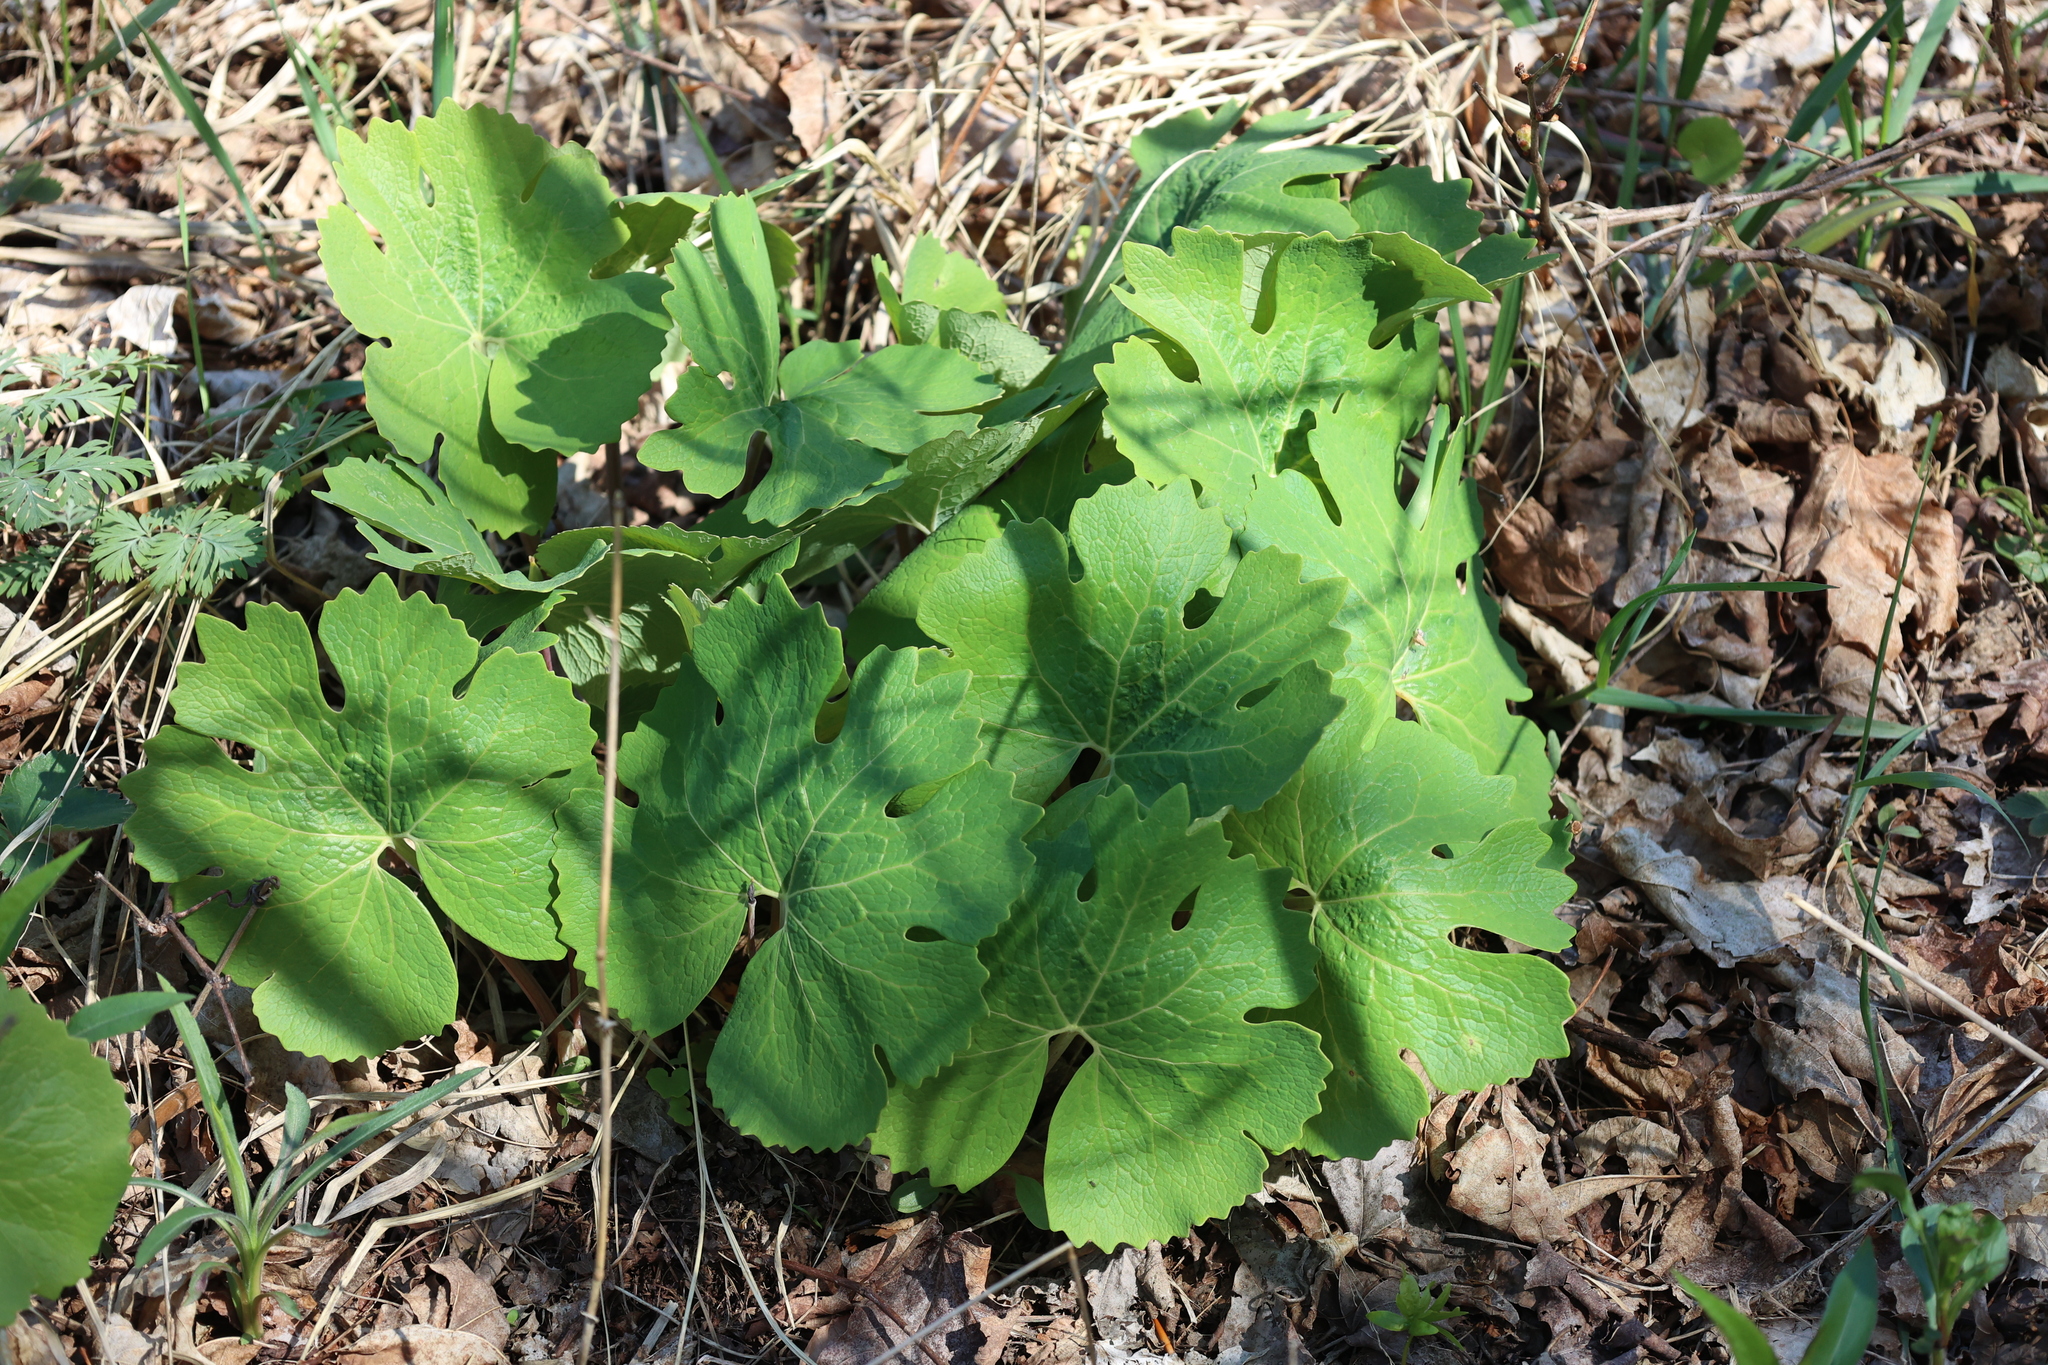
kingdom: Plantae
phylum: Tracheophyta
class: Magnoliopsida
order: Ranunculales
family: Papaveraceae
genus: Sanguinaria
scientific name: Sanguinaria canadensis
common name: Bloodroot
